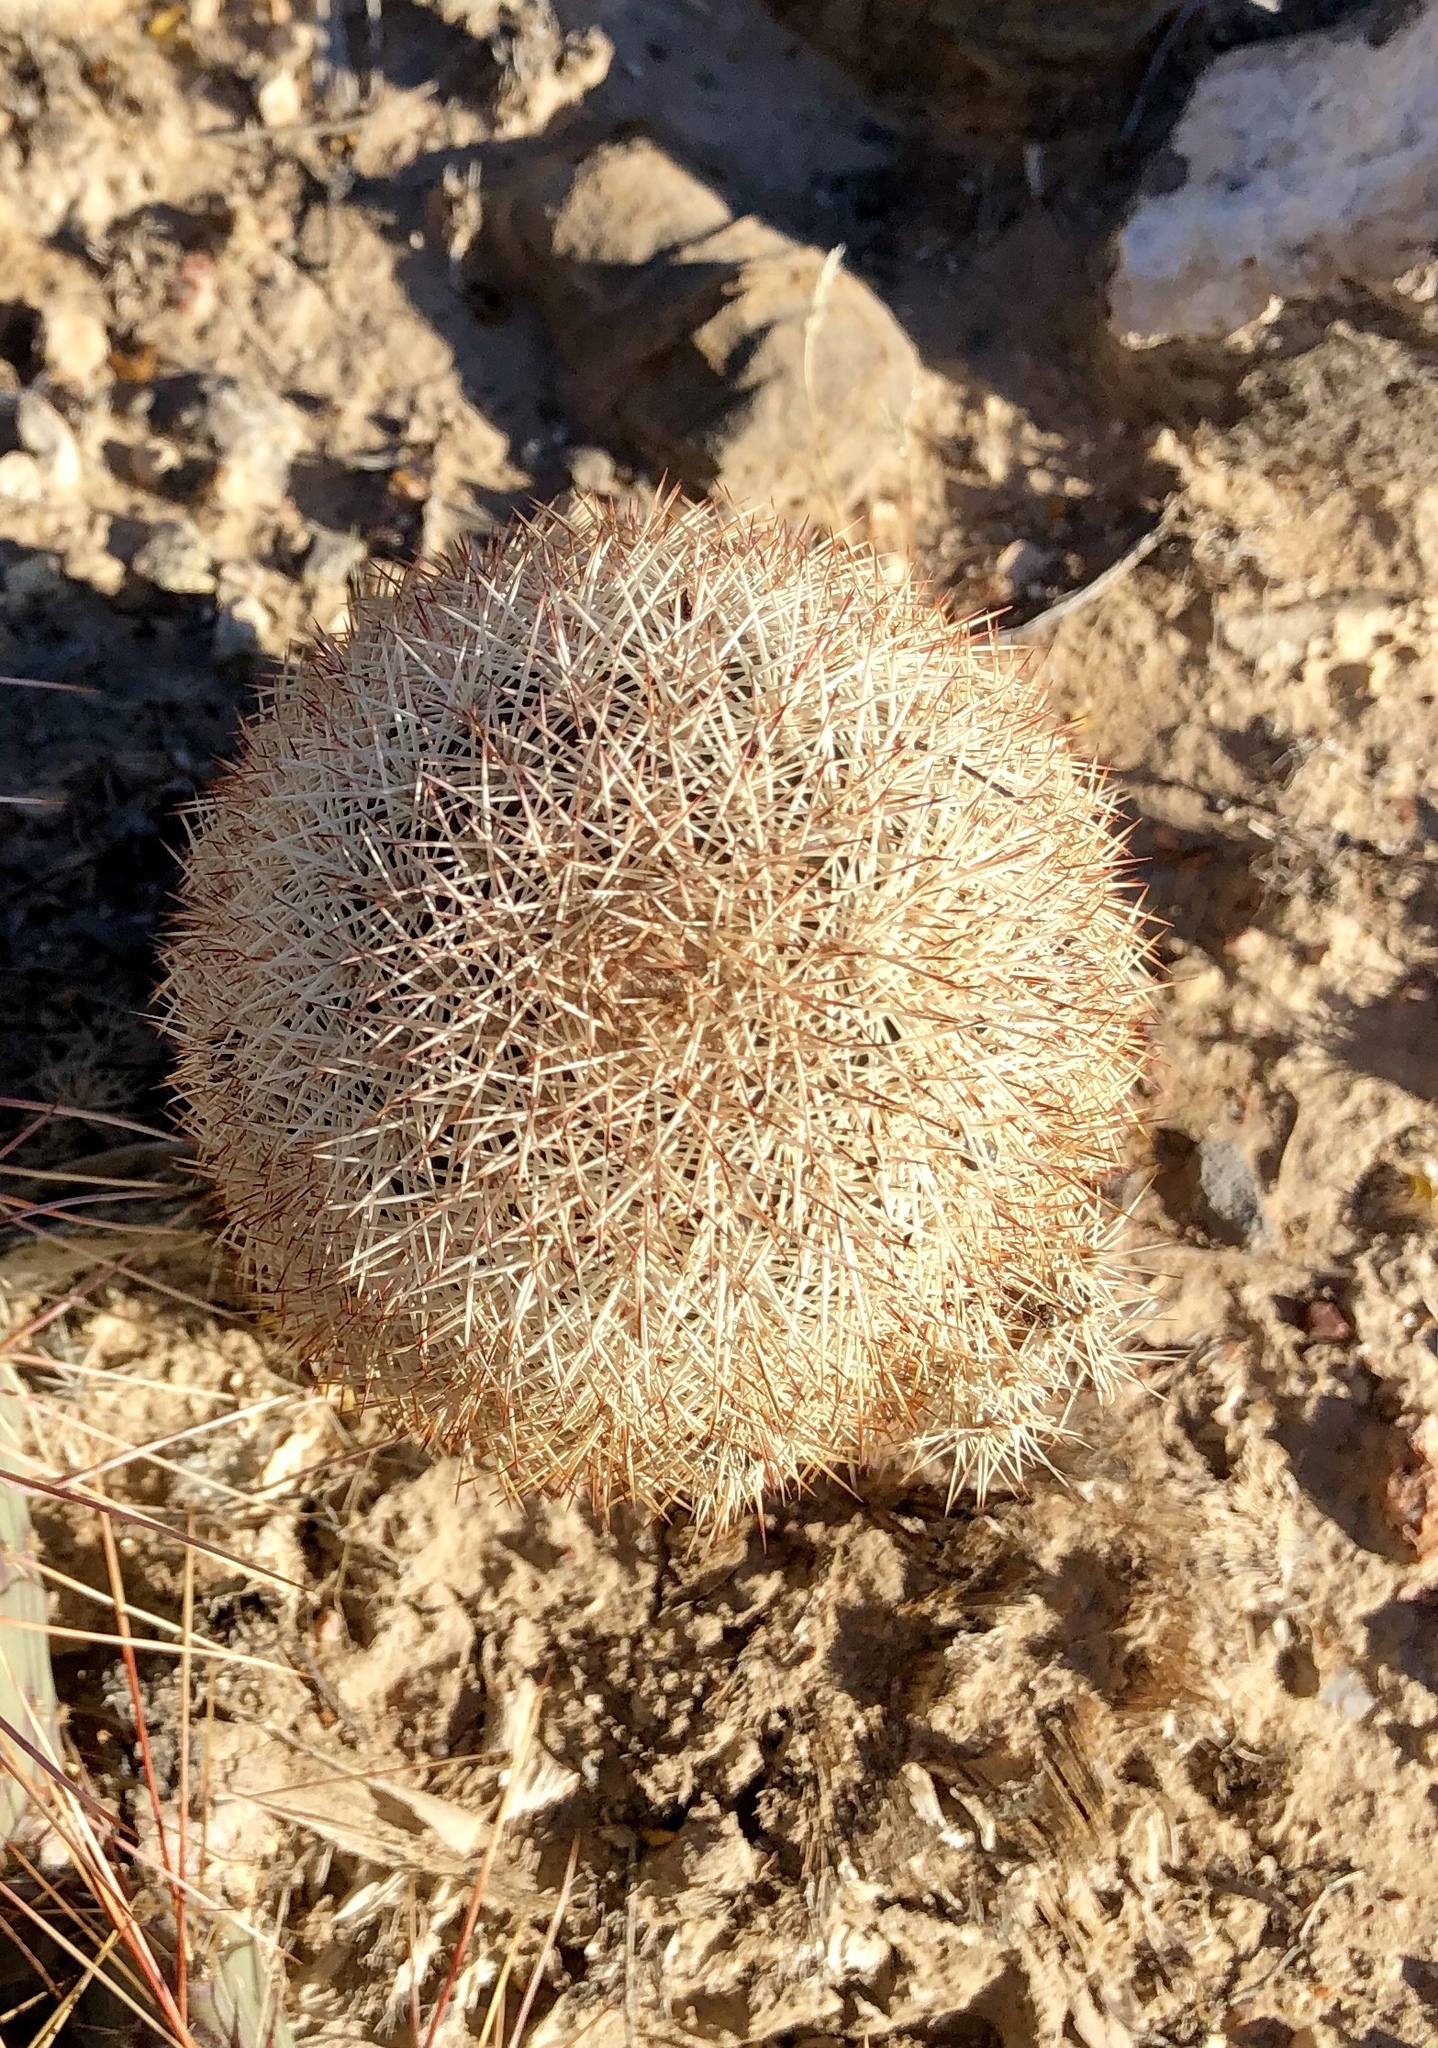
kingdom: Plantae
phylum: Tracheophyta
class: Magnoliopsida
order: Caryophyllales
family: Cactaceae
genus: Echinocereus
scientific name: Echinocereus dasyacanthus
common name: Spiny hedgehog cactus
